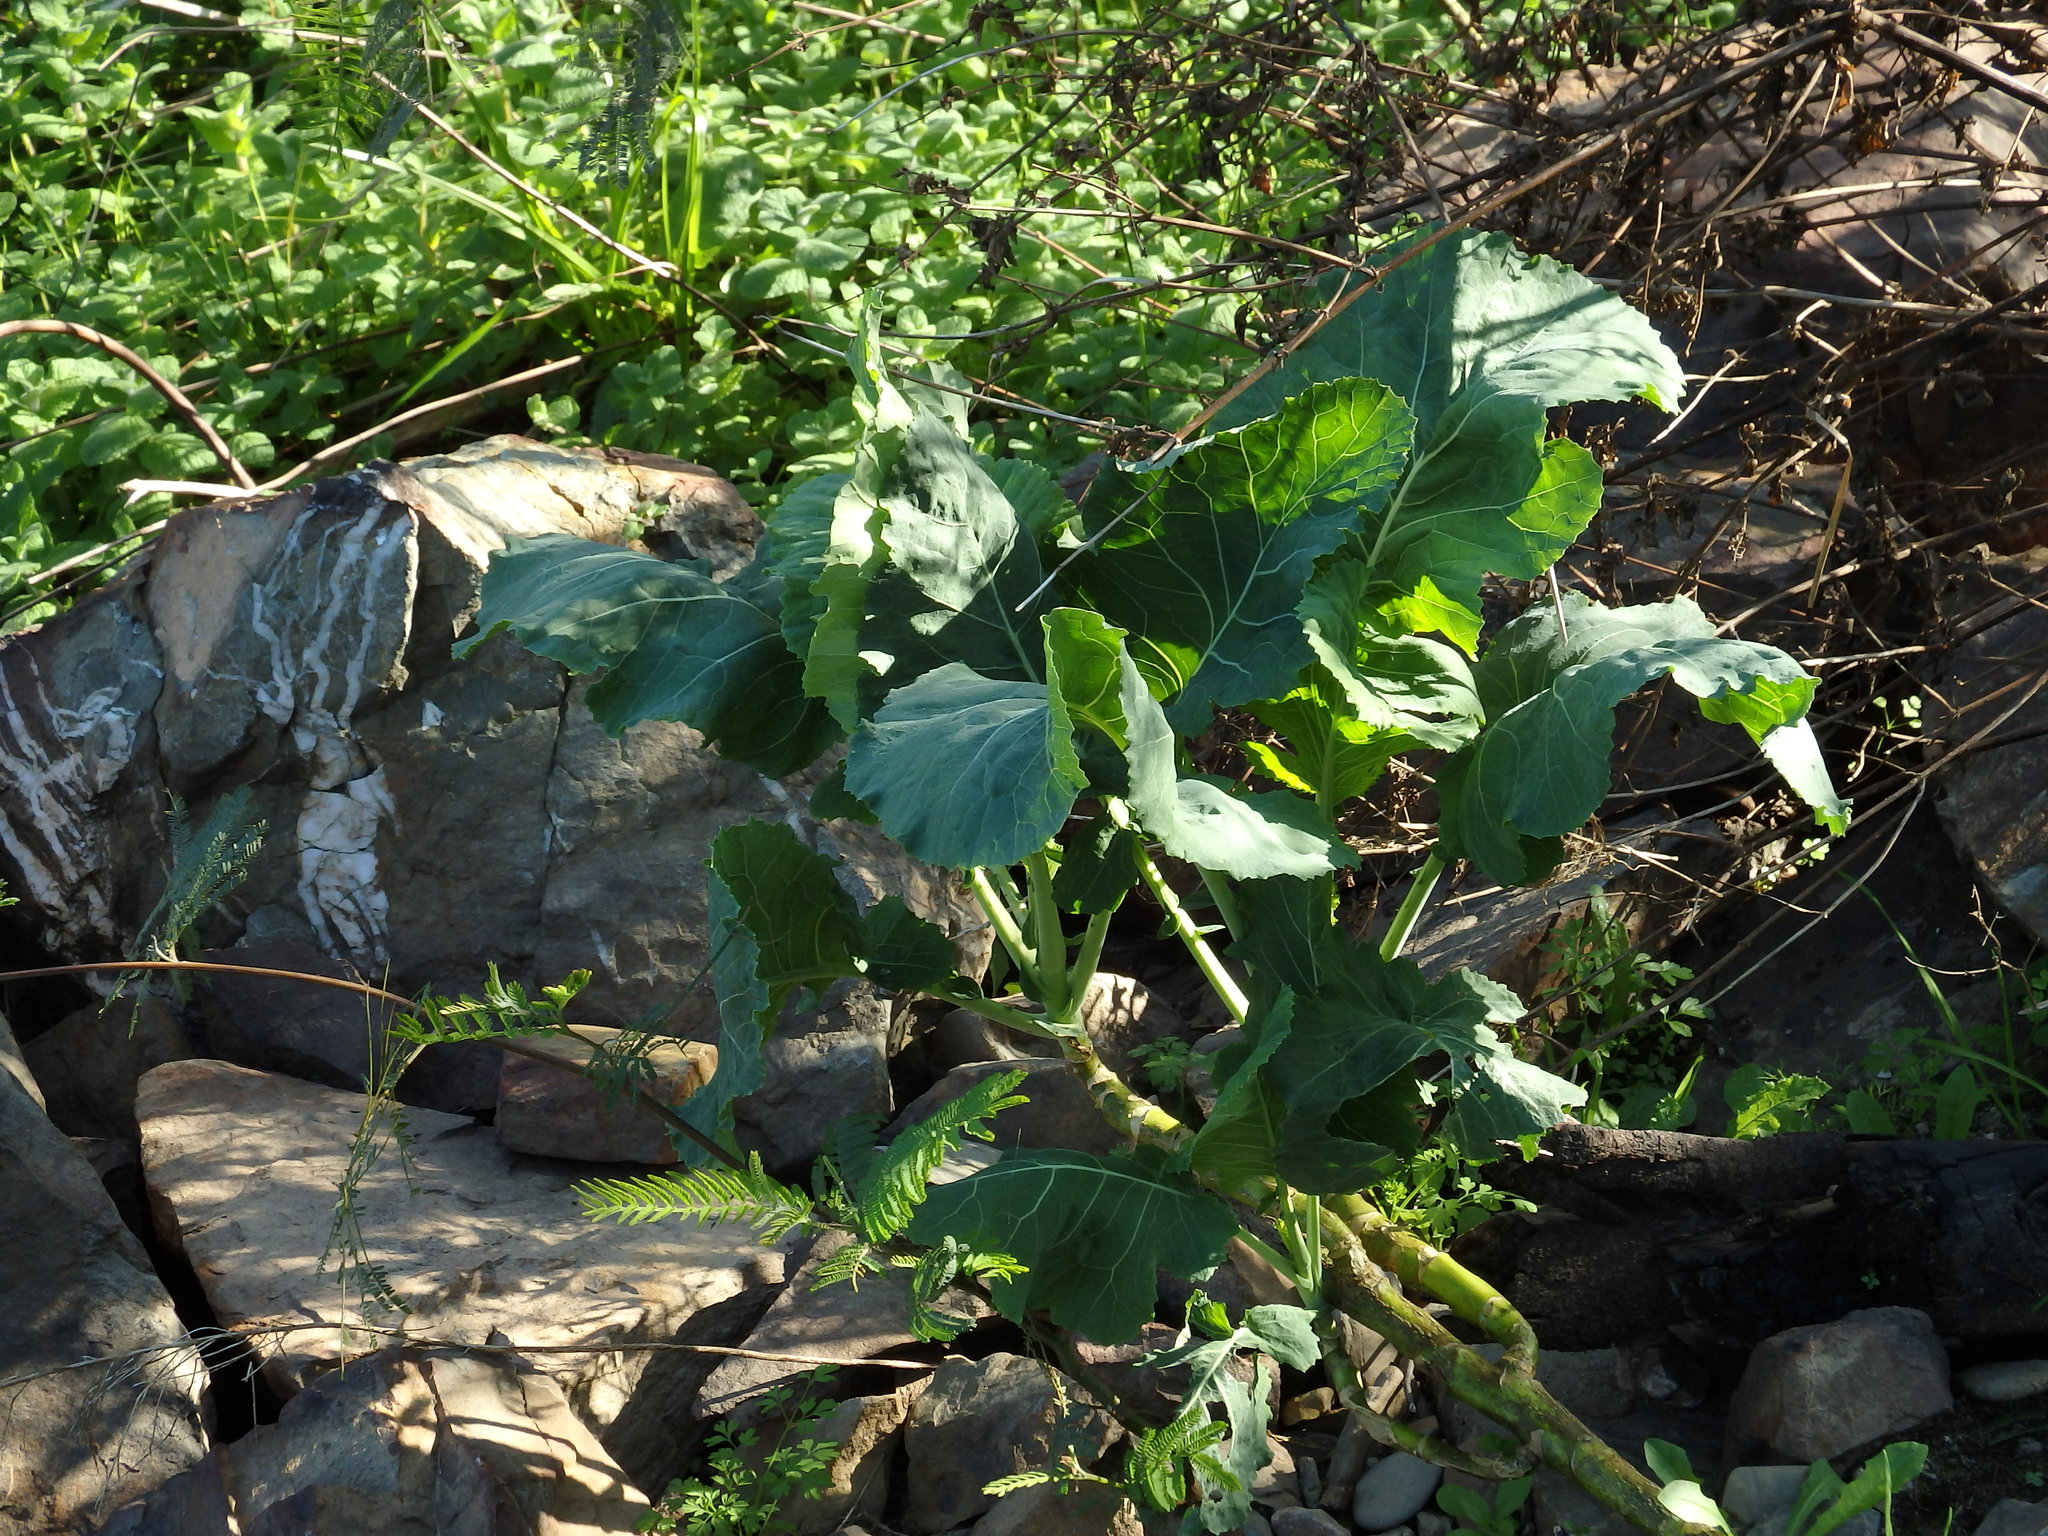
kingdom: Plantae
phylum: Tracheophyta
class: Magnoliopsida
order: Brassicales
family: Brassicaceae
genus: Brassica
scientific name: Brassica oleracea
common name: Cabbage
